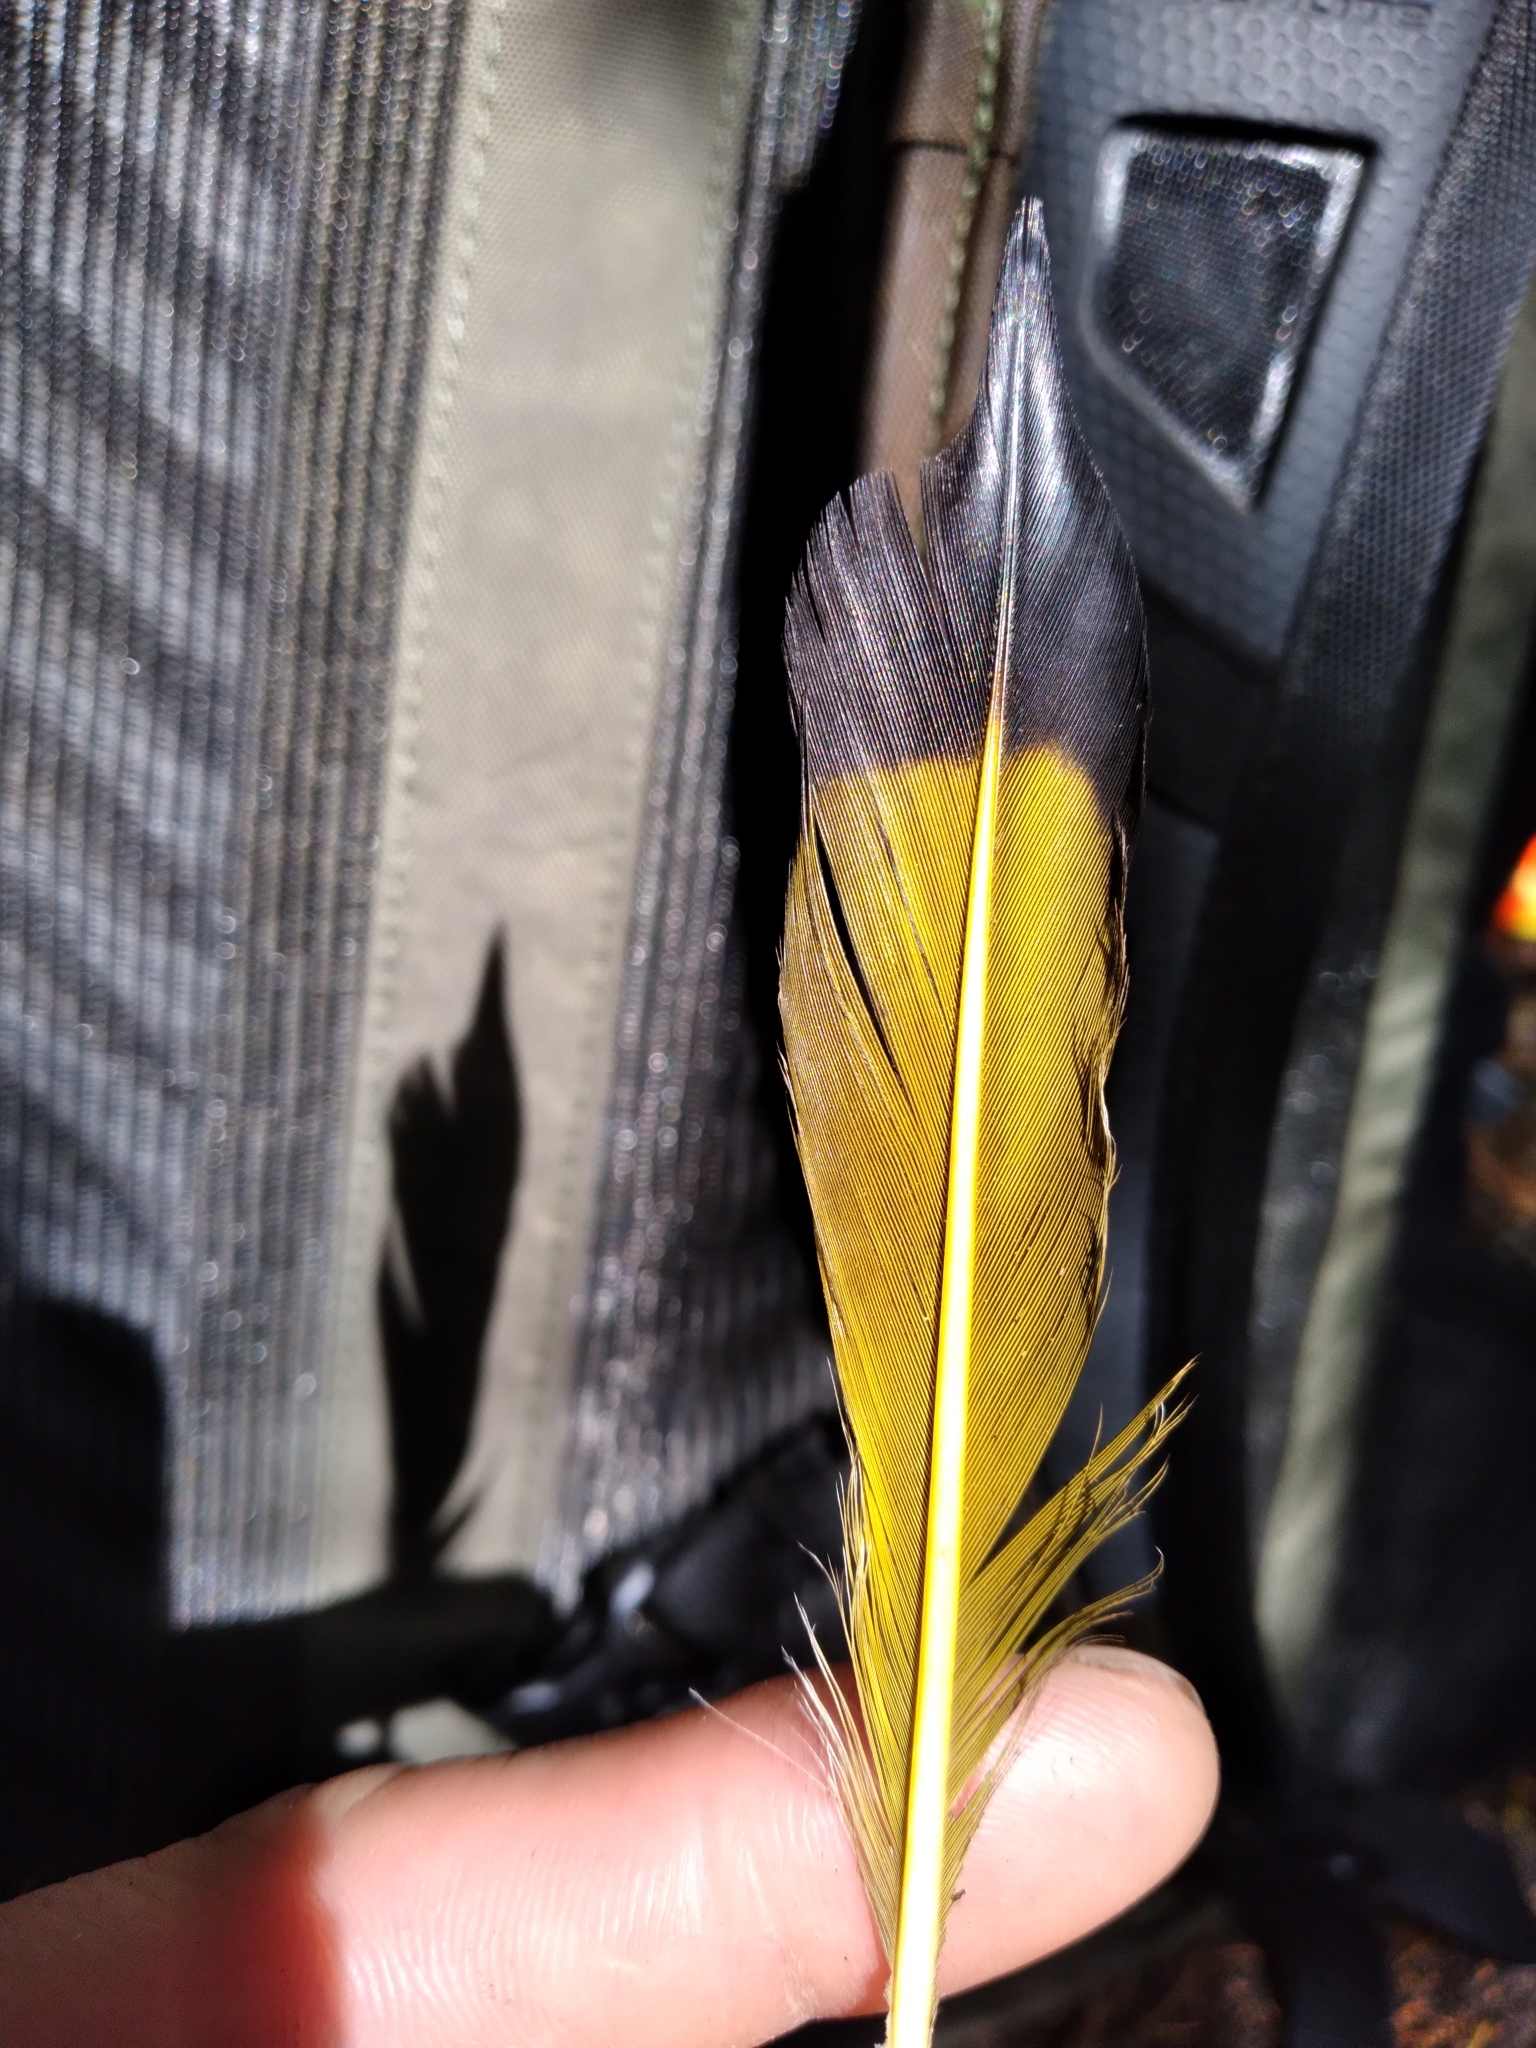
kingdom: Animalia
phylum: Chordata
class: Aves
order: Piciformes
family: Picidae
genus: Colaptes
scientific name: Colaptes auratus
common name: Northern flicker
